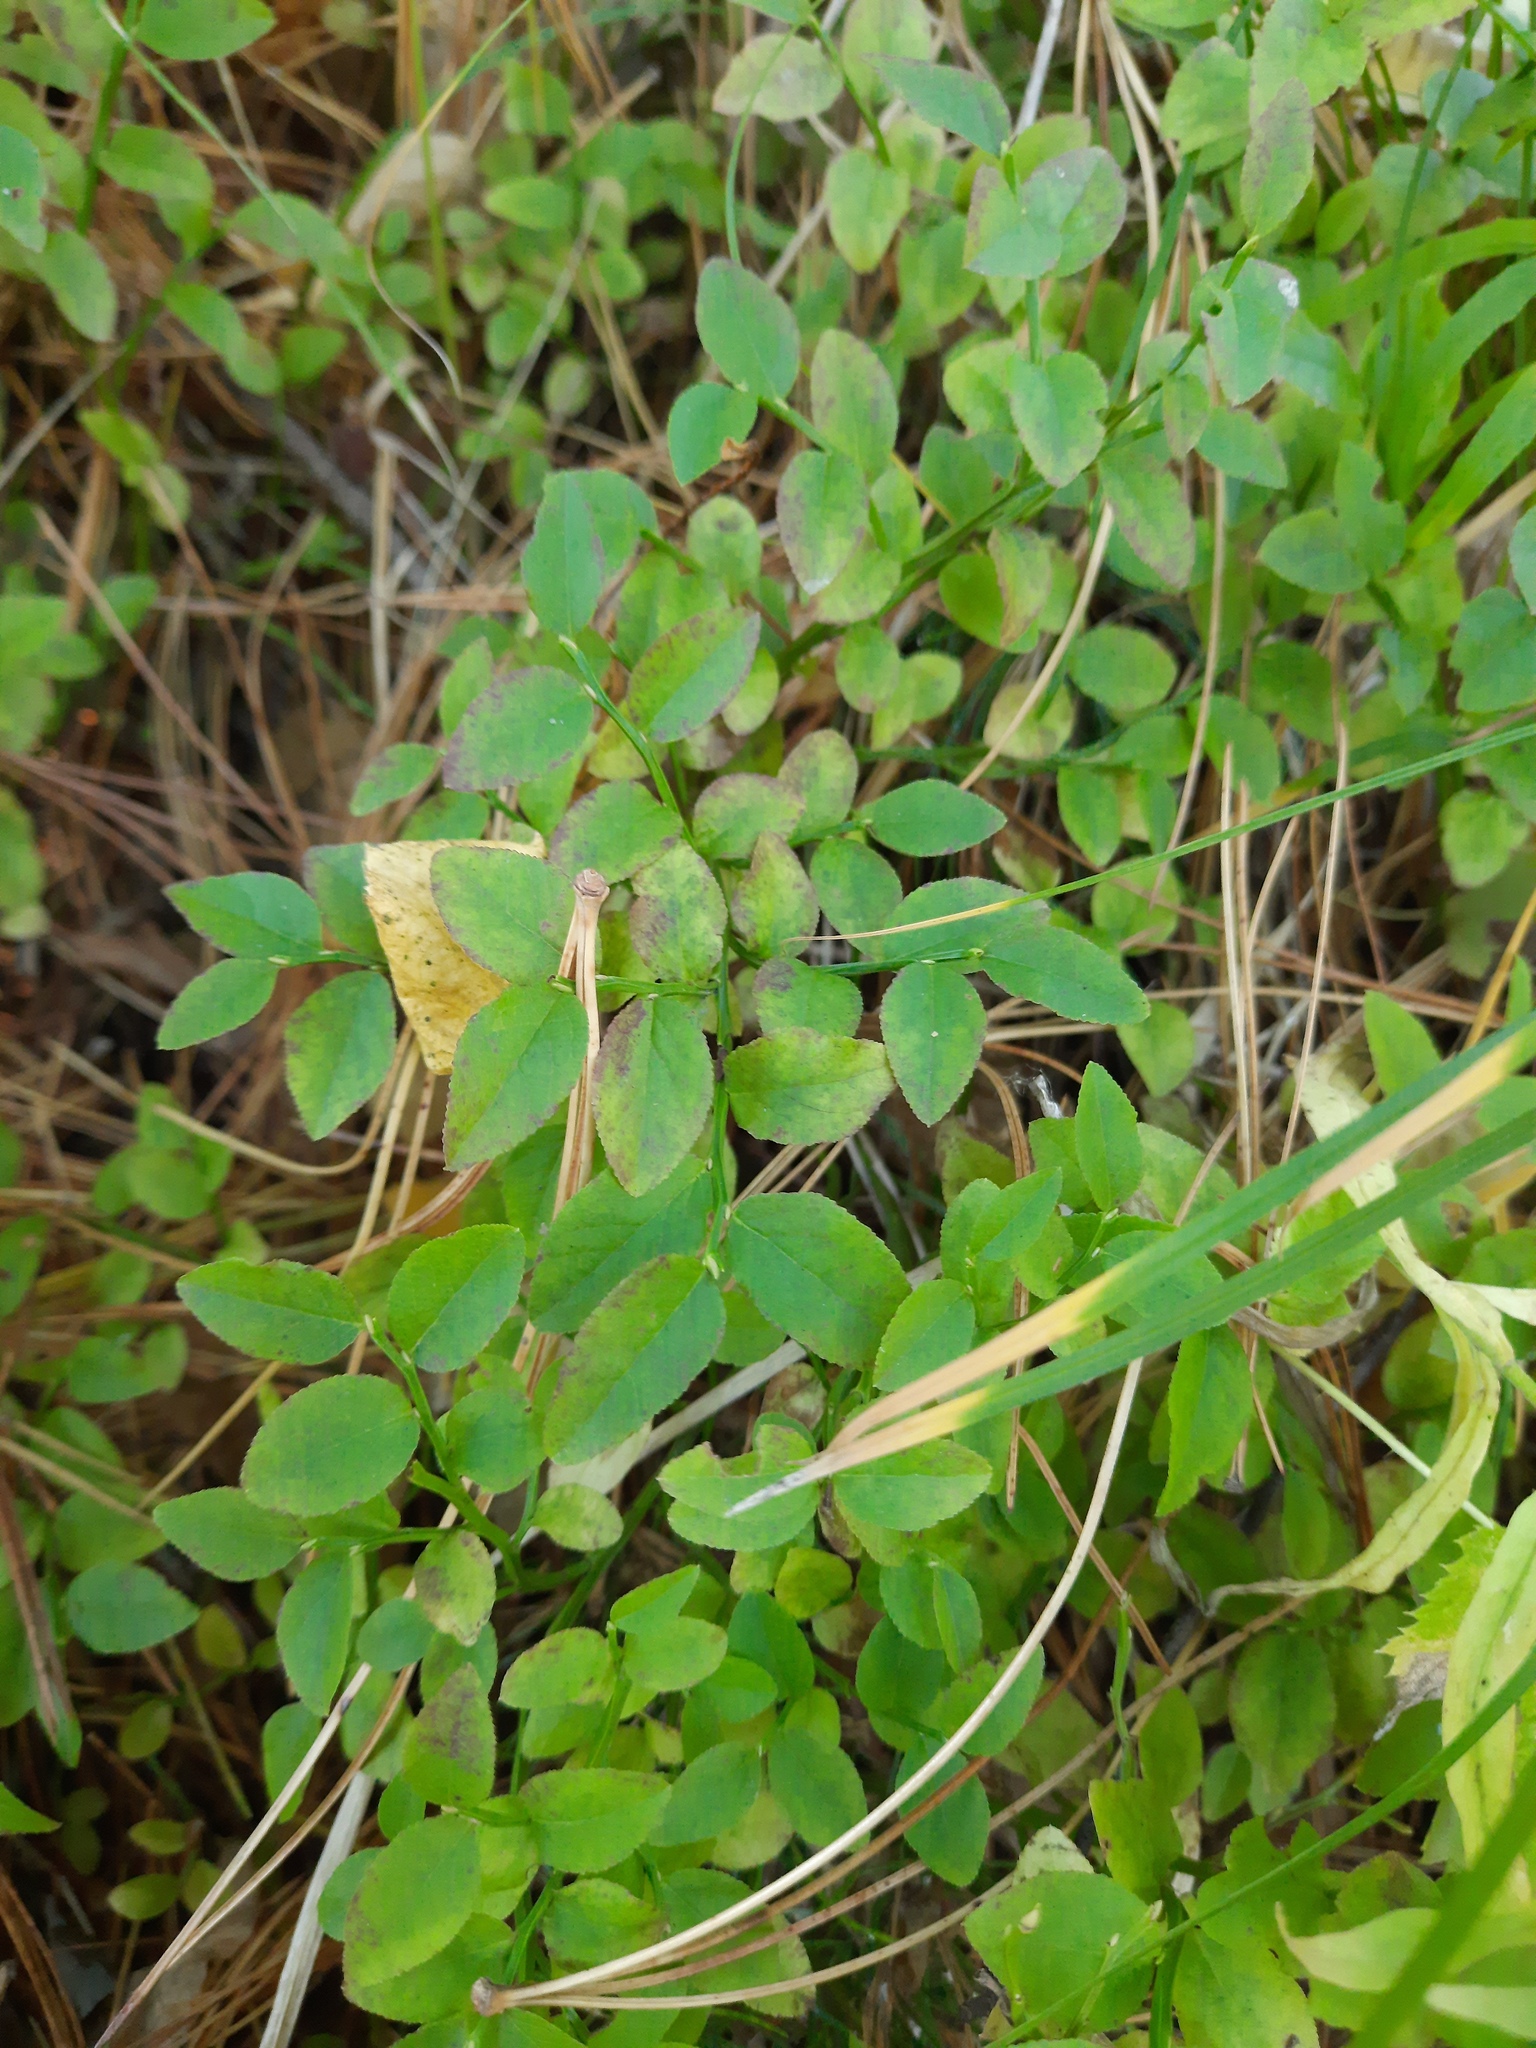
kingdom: Plantae
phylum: Tracheophyta
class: Magnoliopsida
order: Ericales
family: Ericaceae
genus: Vaccinium
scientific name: Vaccinium myrtillus
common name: Bilberry
